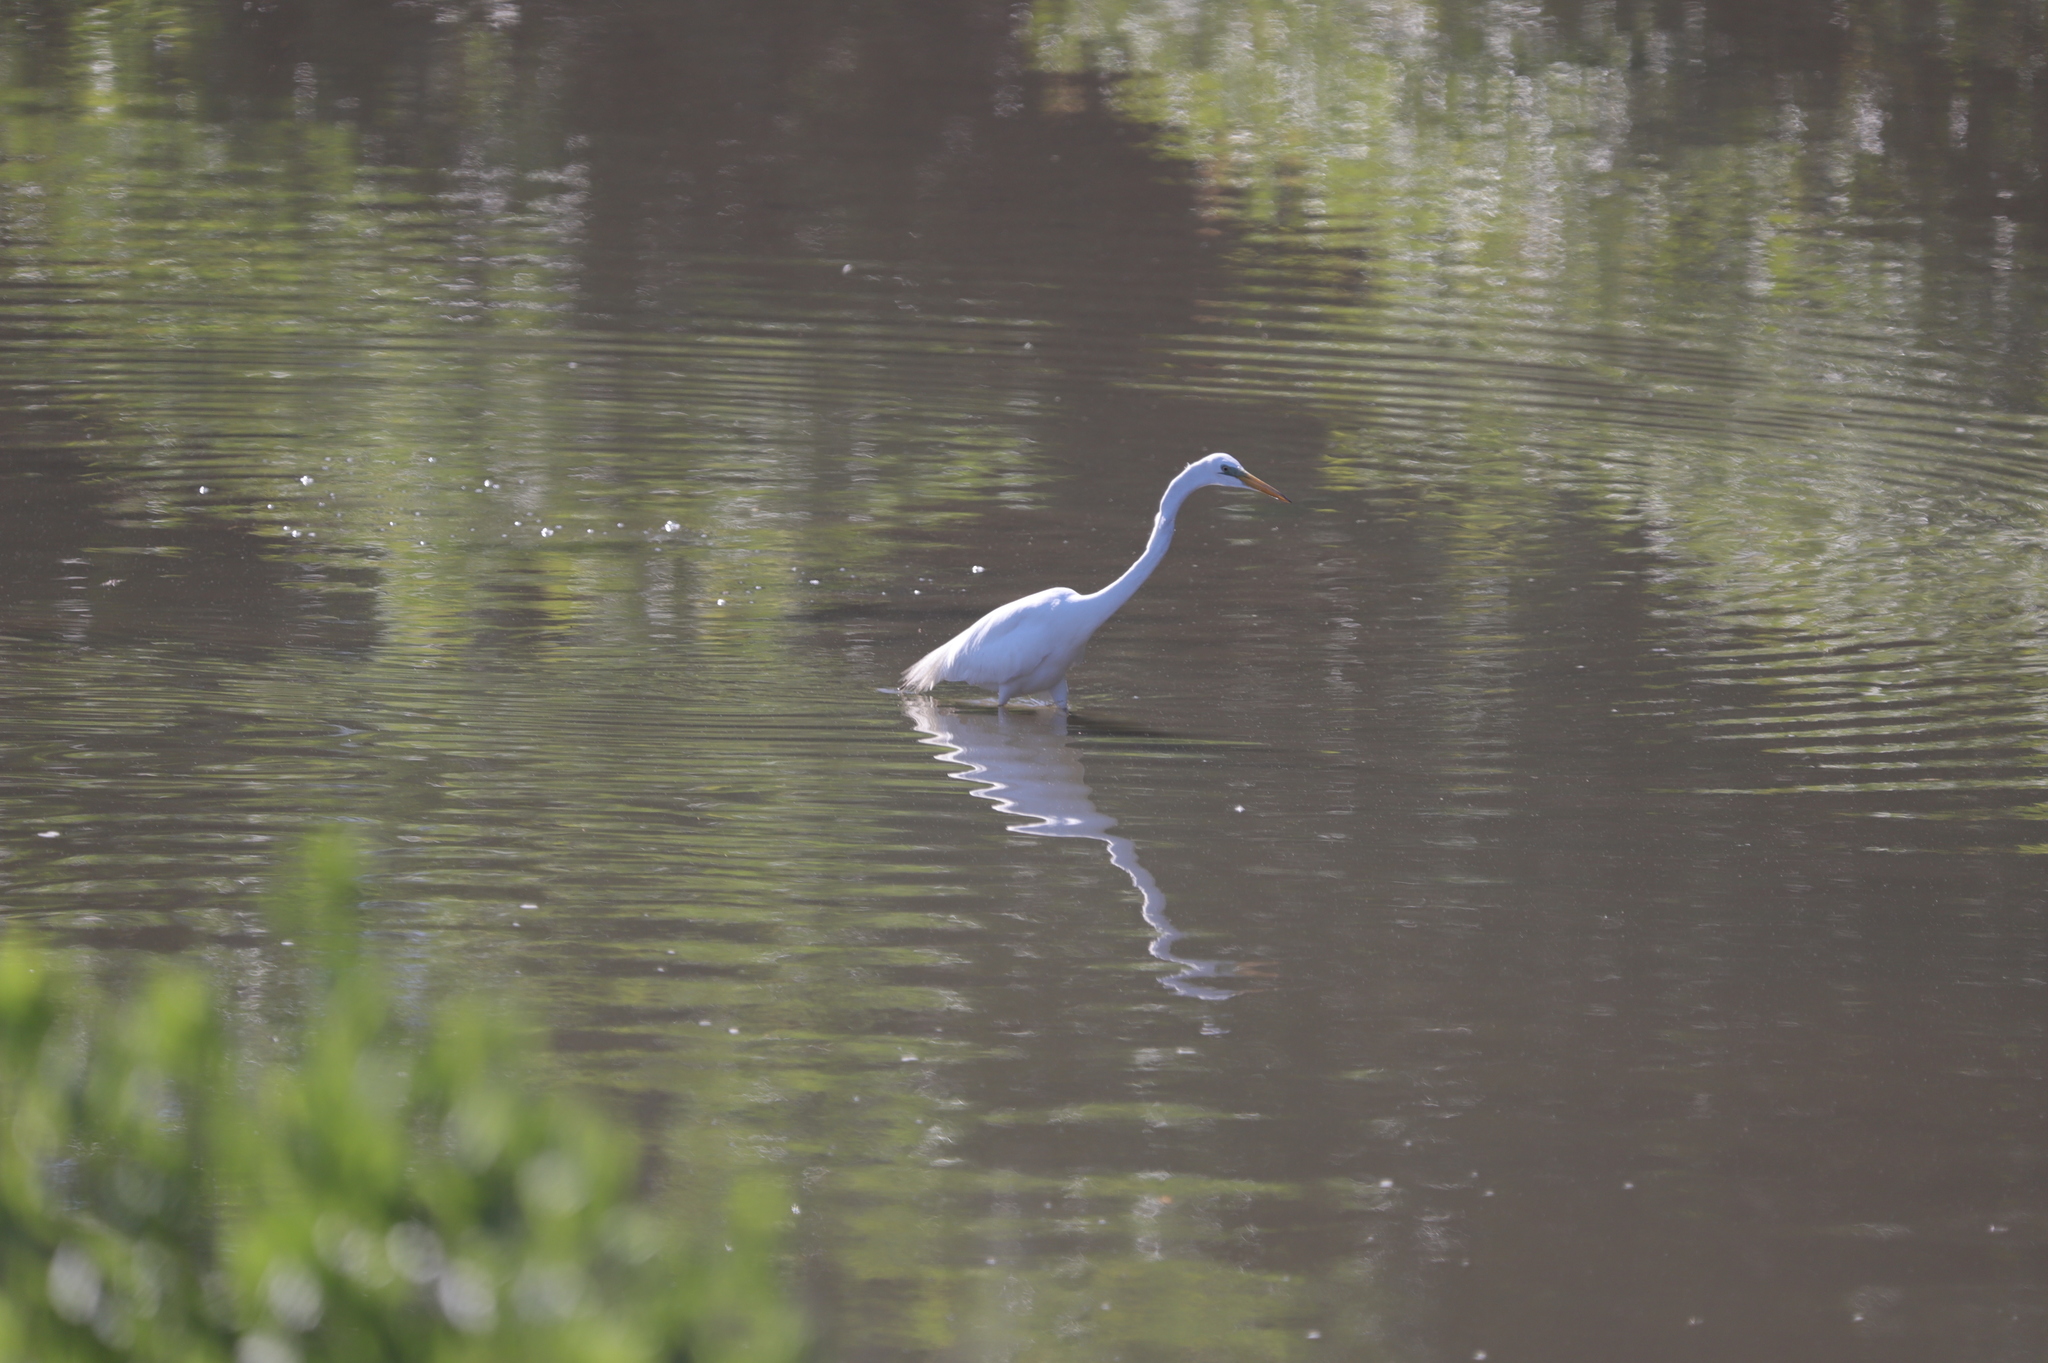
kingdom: Animalia
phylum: Chordata
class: Aves
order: Pelecaniformes
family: Ardeidae
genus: Ardea
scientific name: Ardea alba
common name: Great egret
